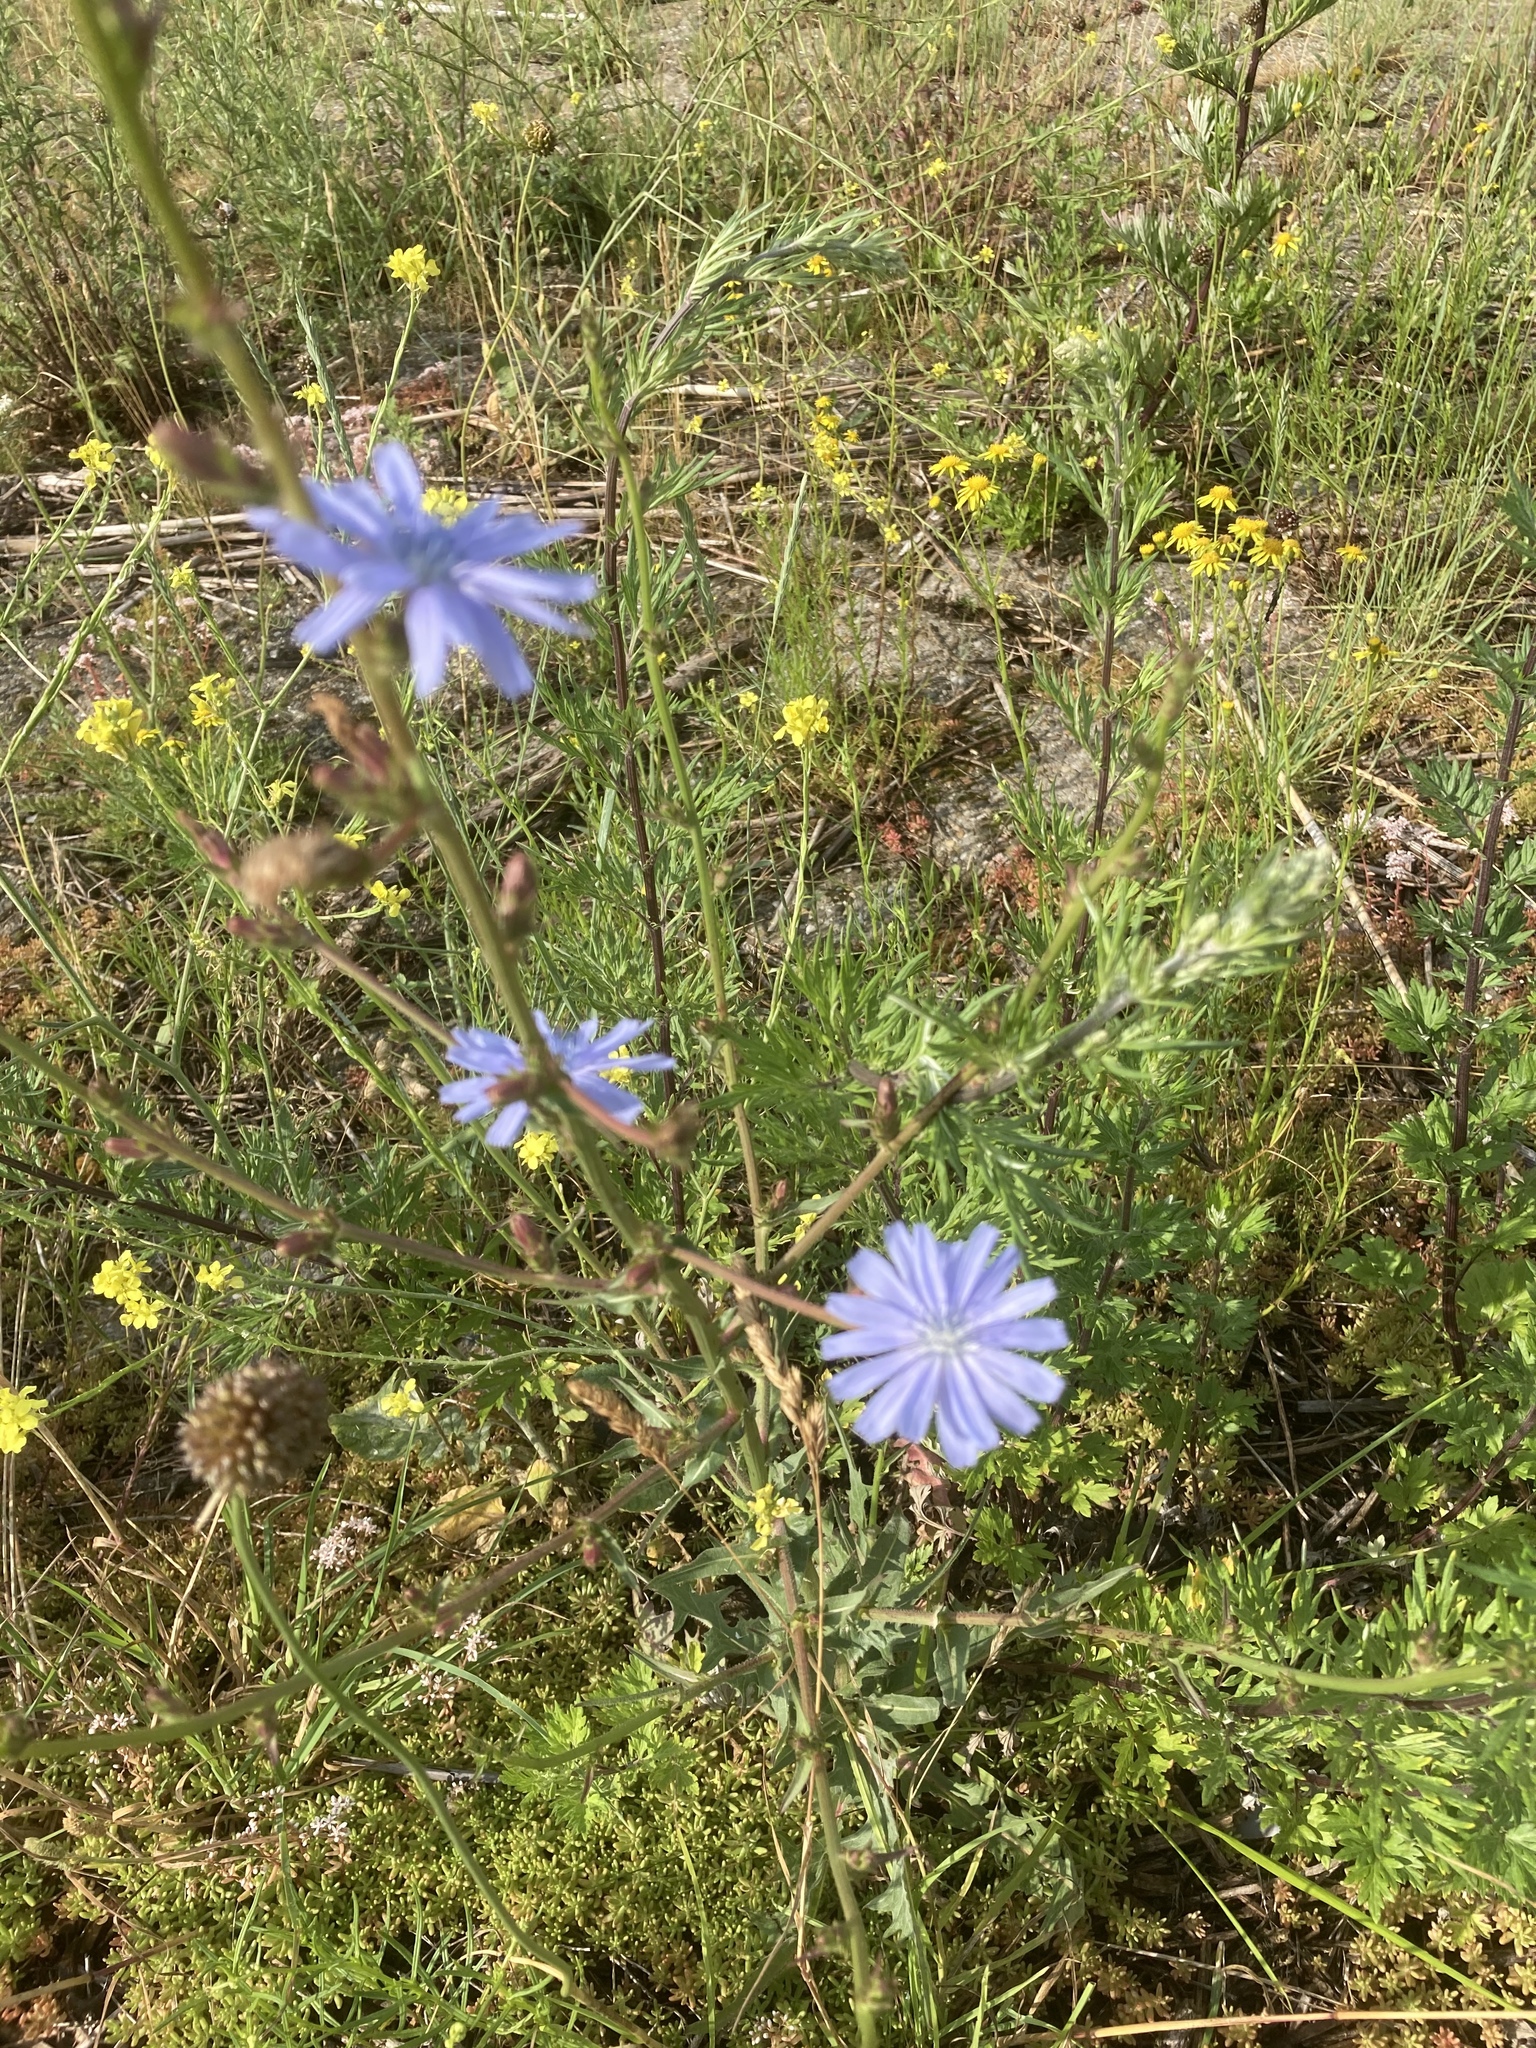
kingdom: Plantae
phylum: Tracheophyta
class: Magnoliopsida
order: Asterales
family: Asteraceae
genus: Cichorium
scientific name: Cichorium intybus
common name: Chicory
